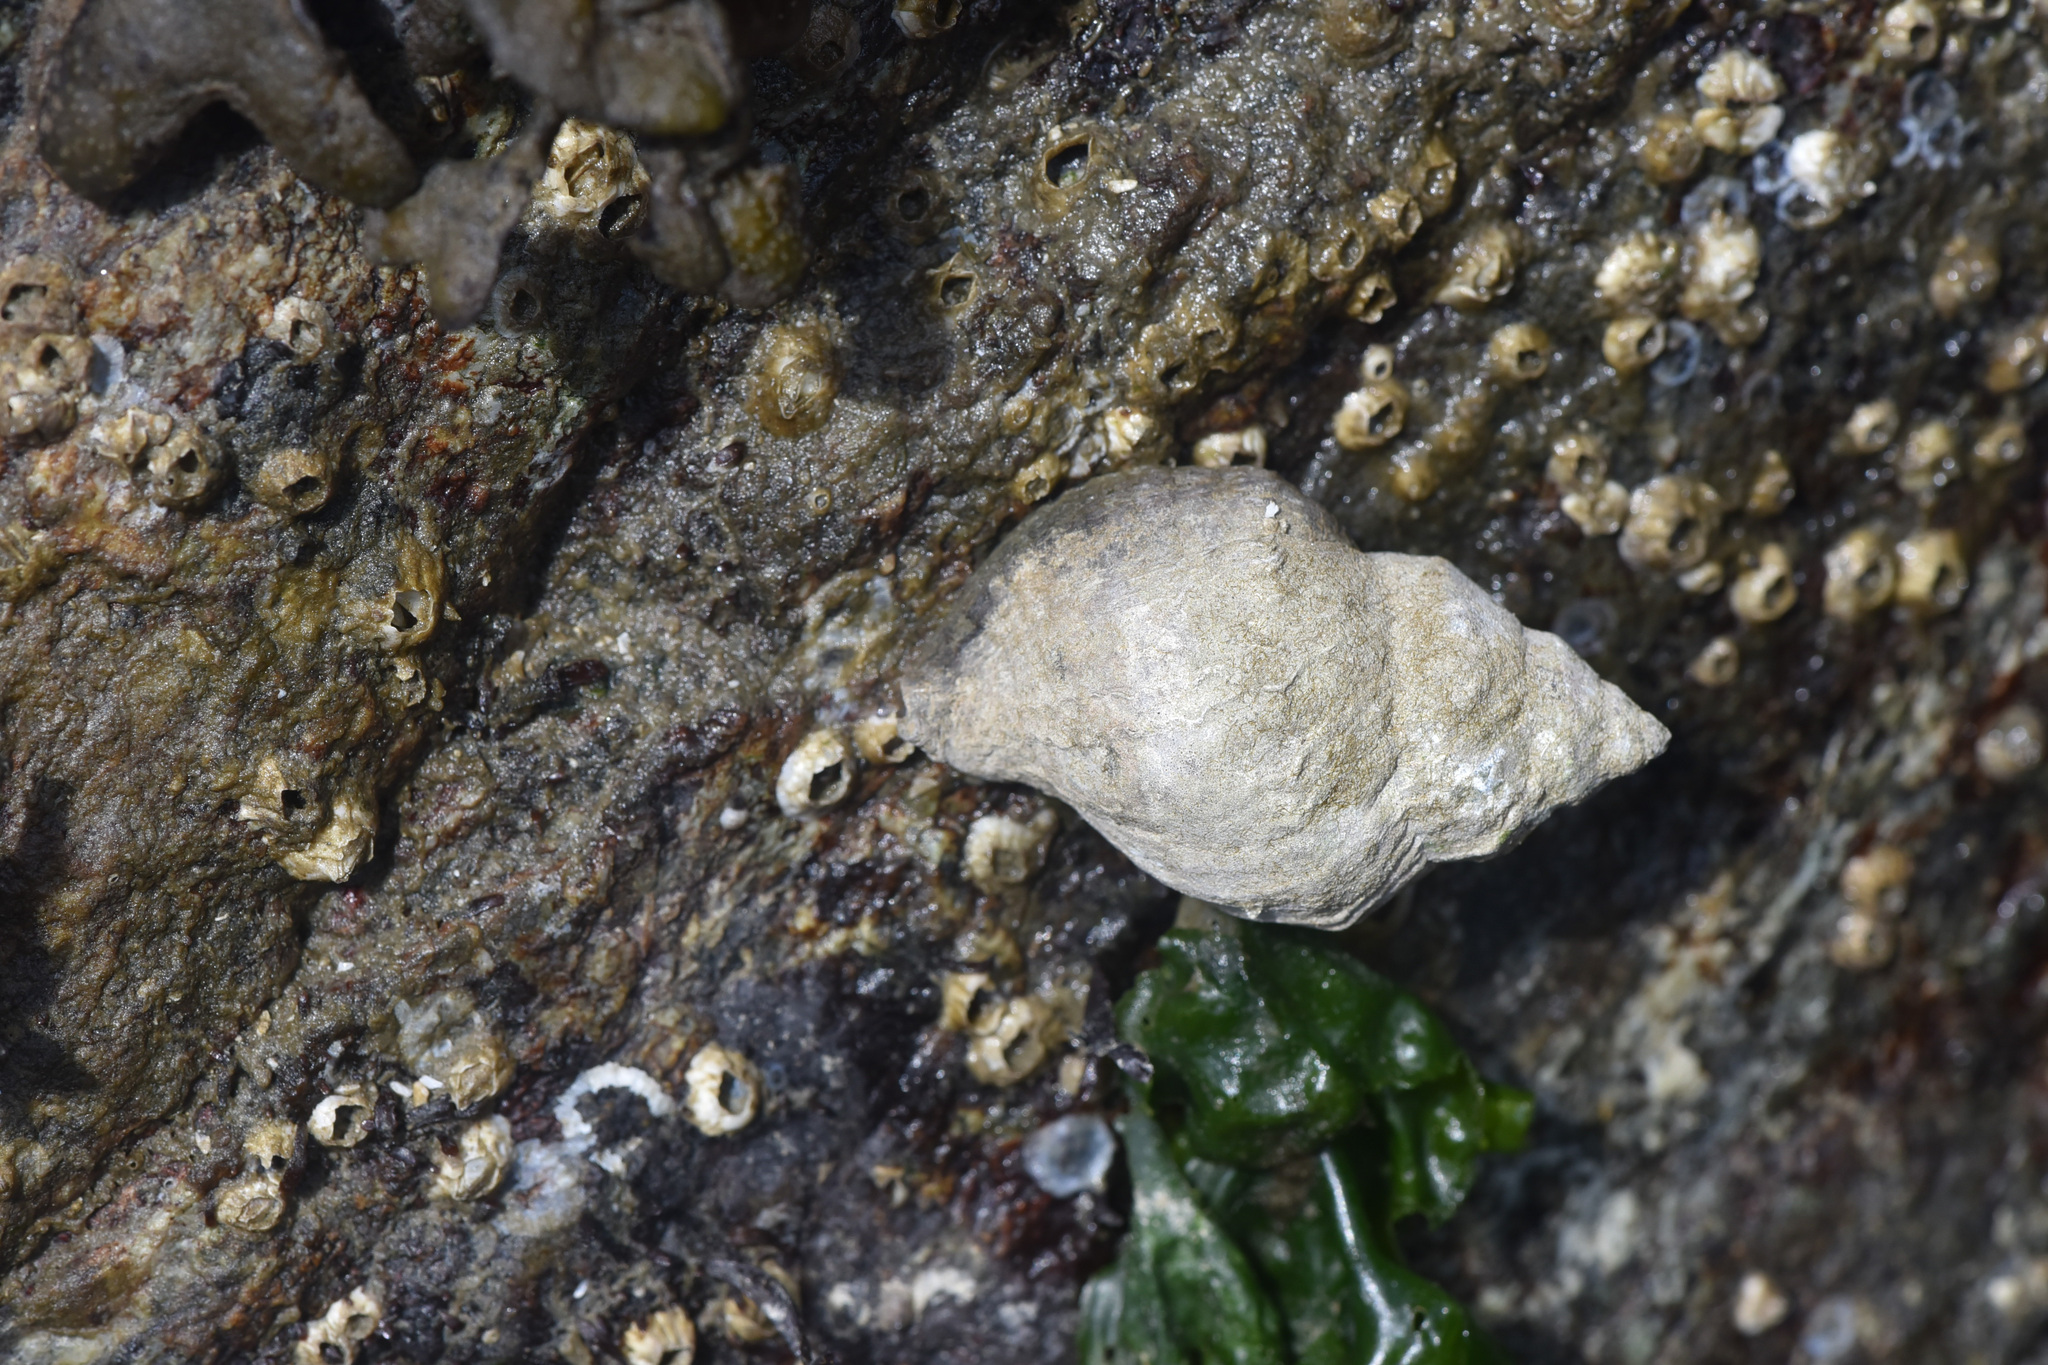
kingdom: Animalia
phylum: Mollusca
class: Gastropoda
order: Neogastropoda
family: Muricidae
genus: Nucella
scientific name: Nucella lamellosa
